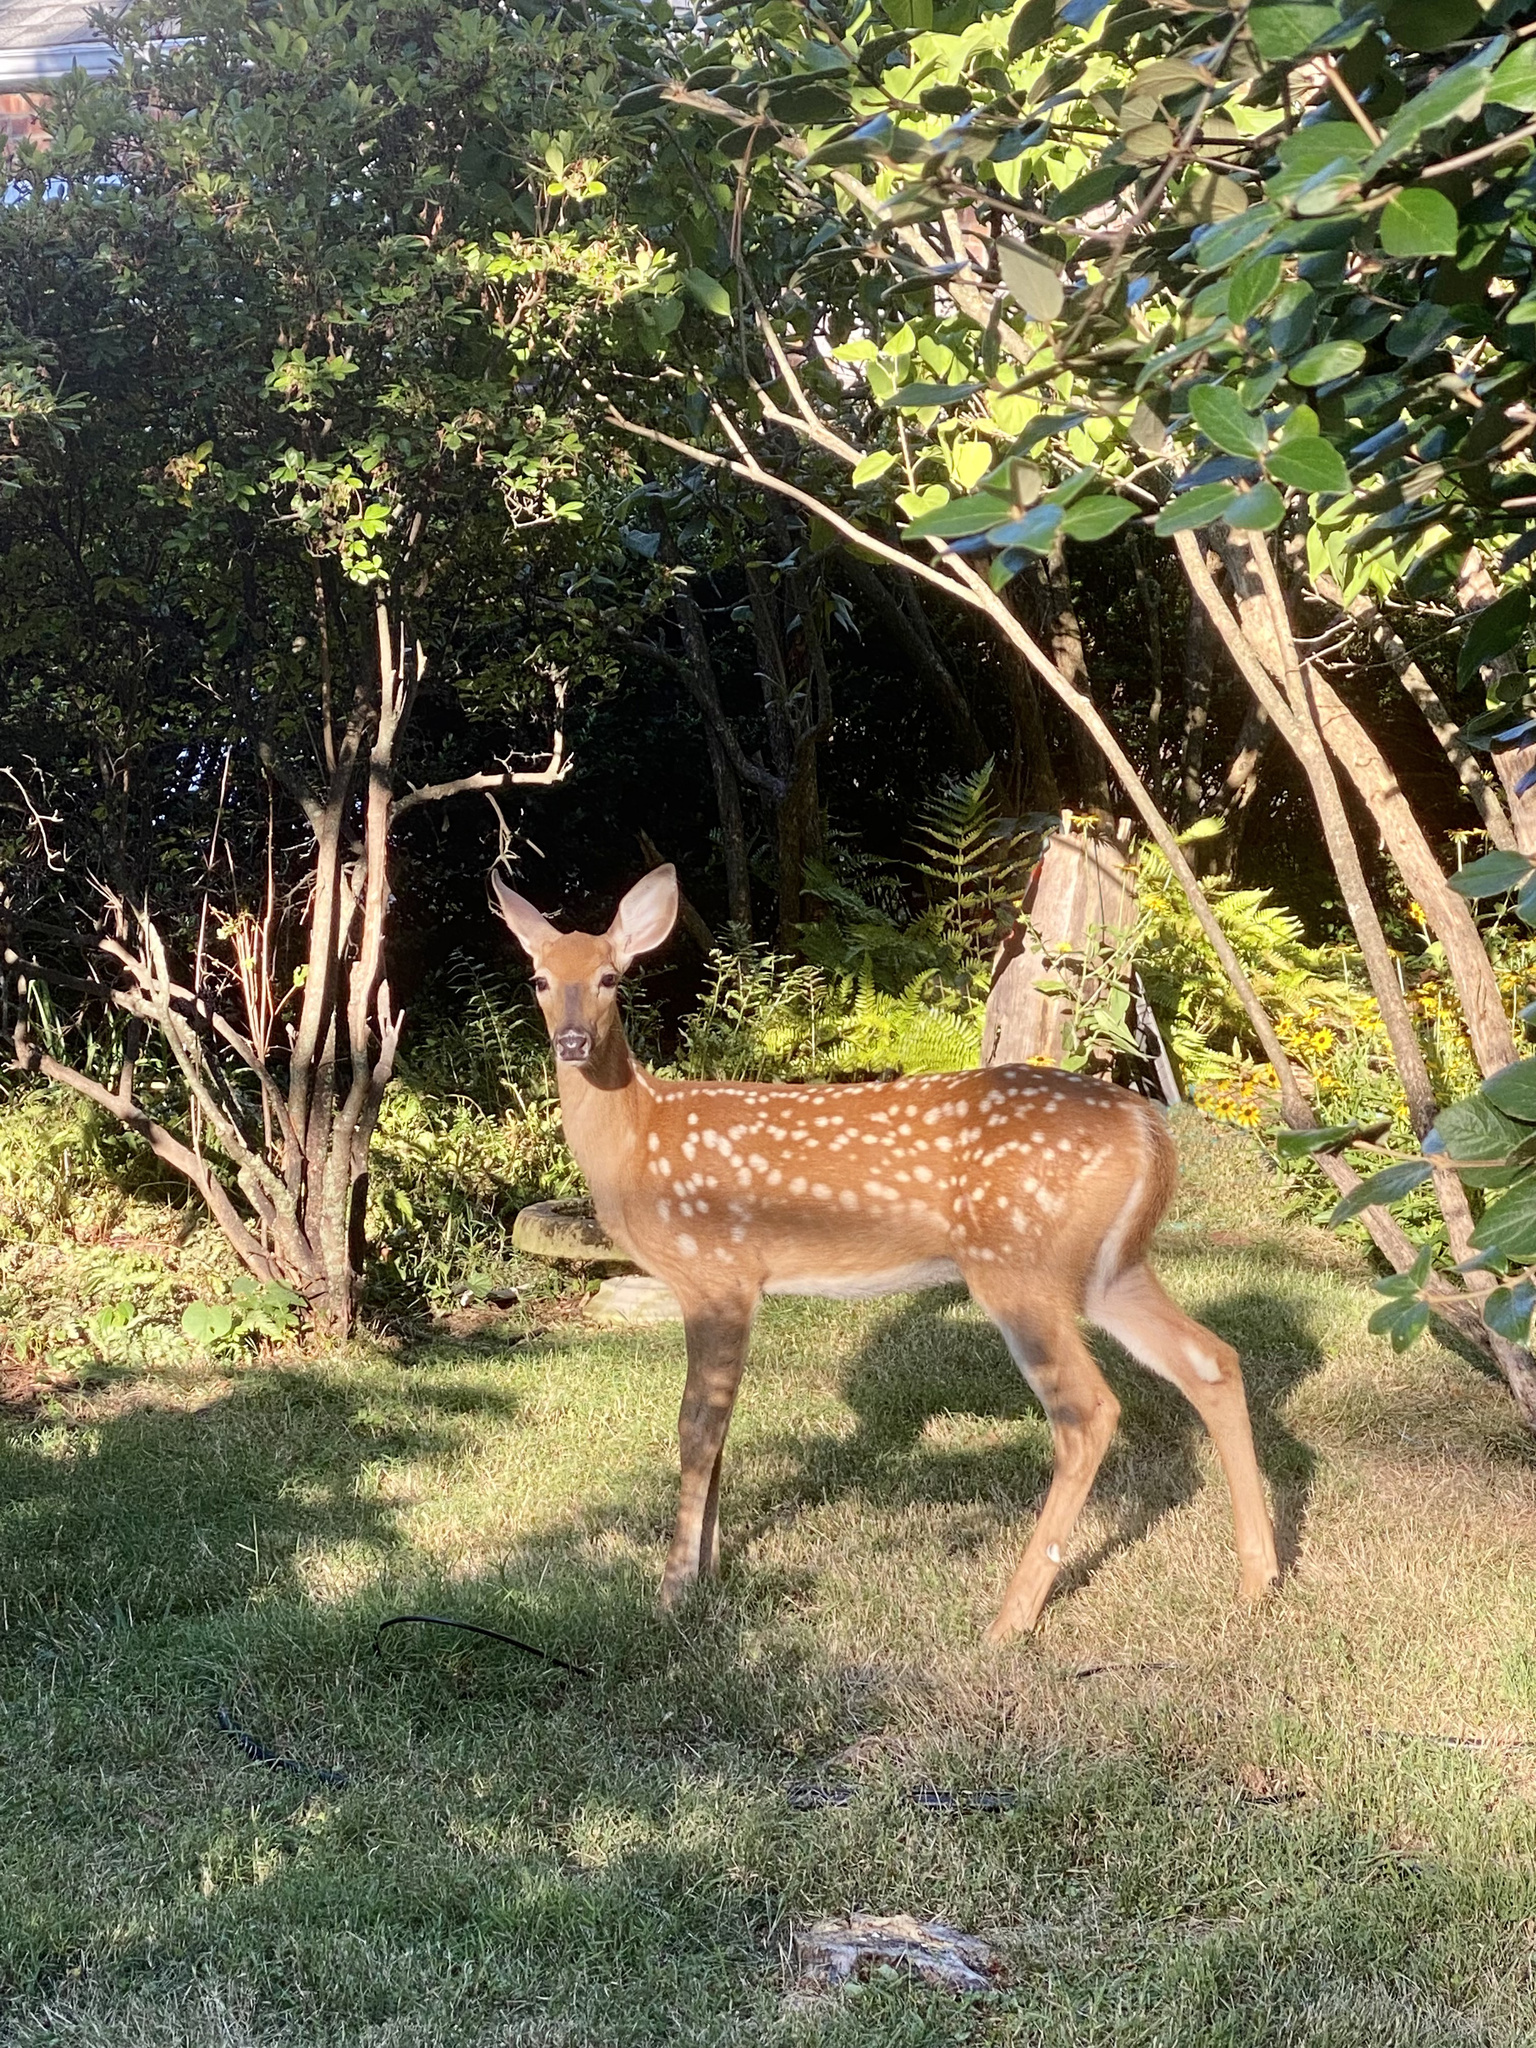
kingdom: Animalia
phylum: Chordata
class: Mammalia
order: Artiodactyla
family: Cervidae
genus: Odocoileus
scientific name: Odocoileus virginianus
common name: White-tailed deer
